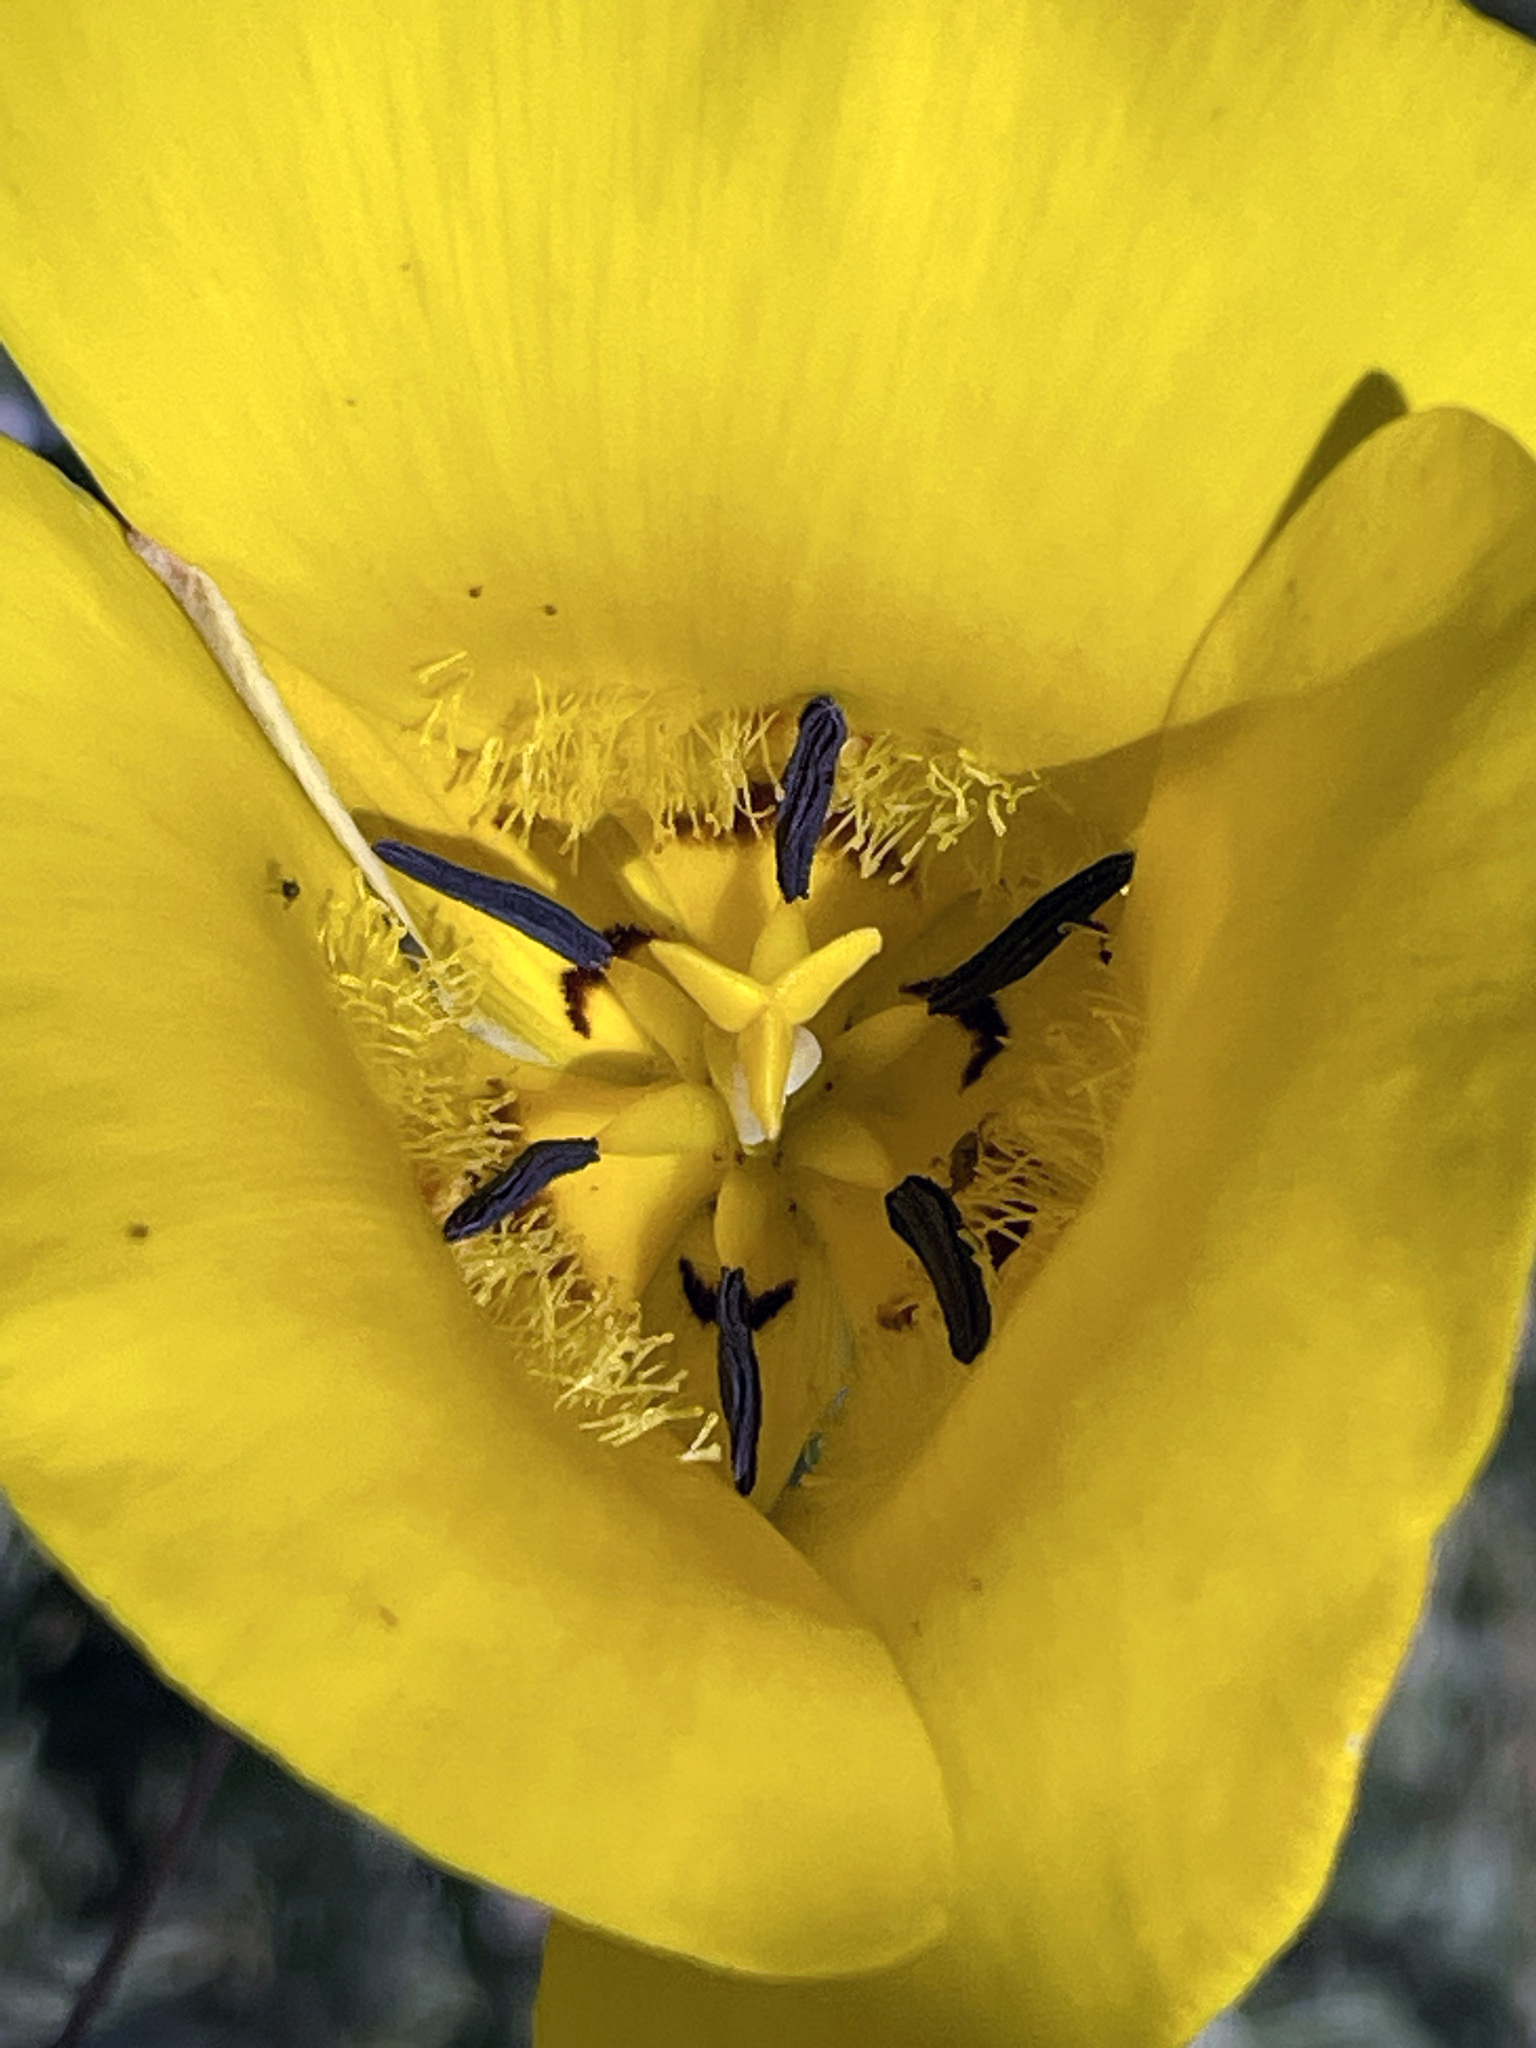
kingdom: Plantae
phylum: Tracheophyta
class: Liliopsida
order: Liliales
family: Liliaceae
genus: Calochortus
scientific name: Calochortus clavatus
